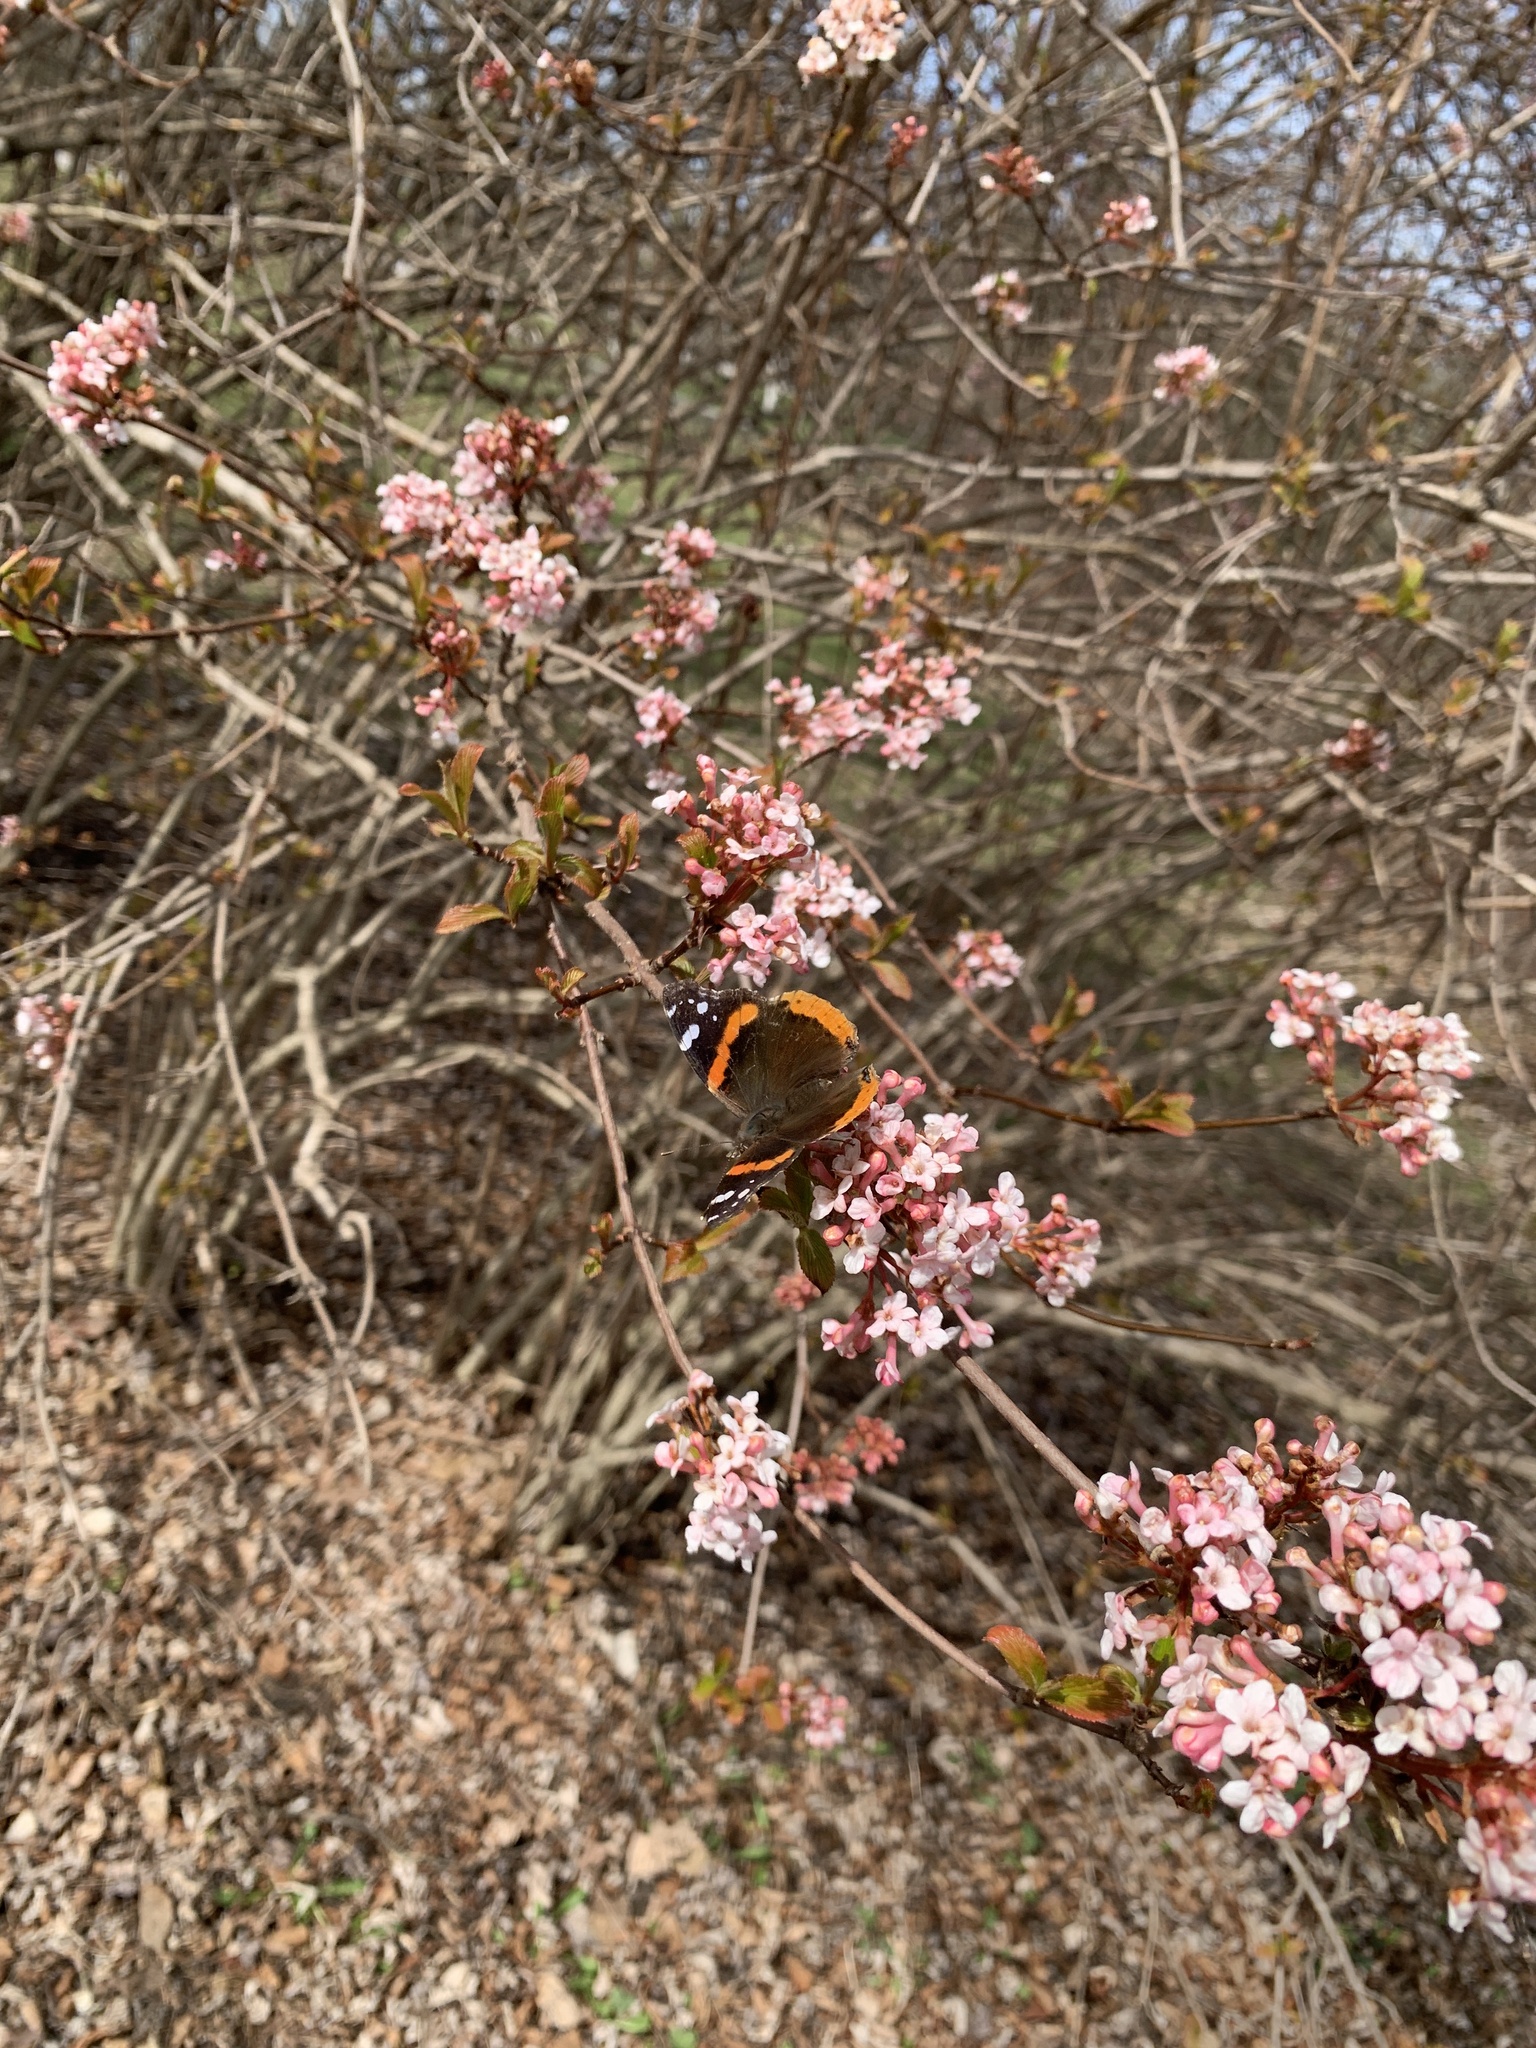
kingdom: Animalia
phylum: Arthropoda
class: Insecta
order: Lepidoptera
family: Nymphalidae
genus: Vanessa
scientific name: Vanessa atalanta
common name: Red admiral
